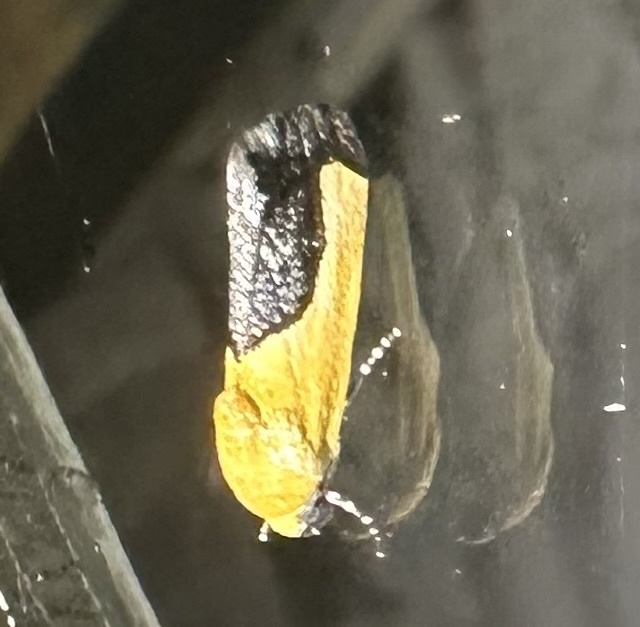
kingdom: Animalia
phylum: Arthropoda
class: Insecta
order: Lepidoptera
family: Noctuidae
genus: Acontia
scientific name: Acontia guttifera
